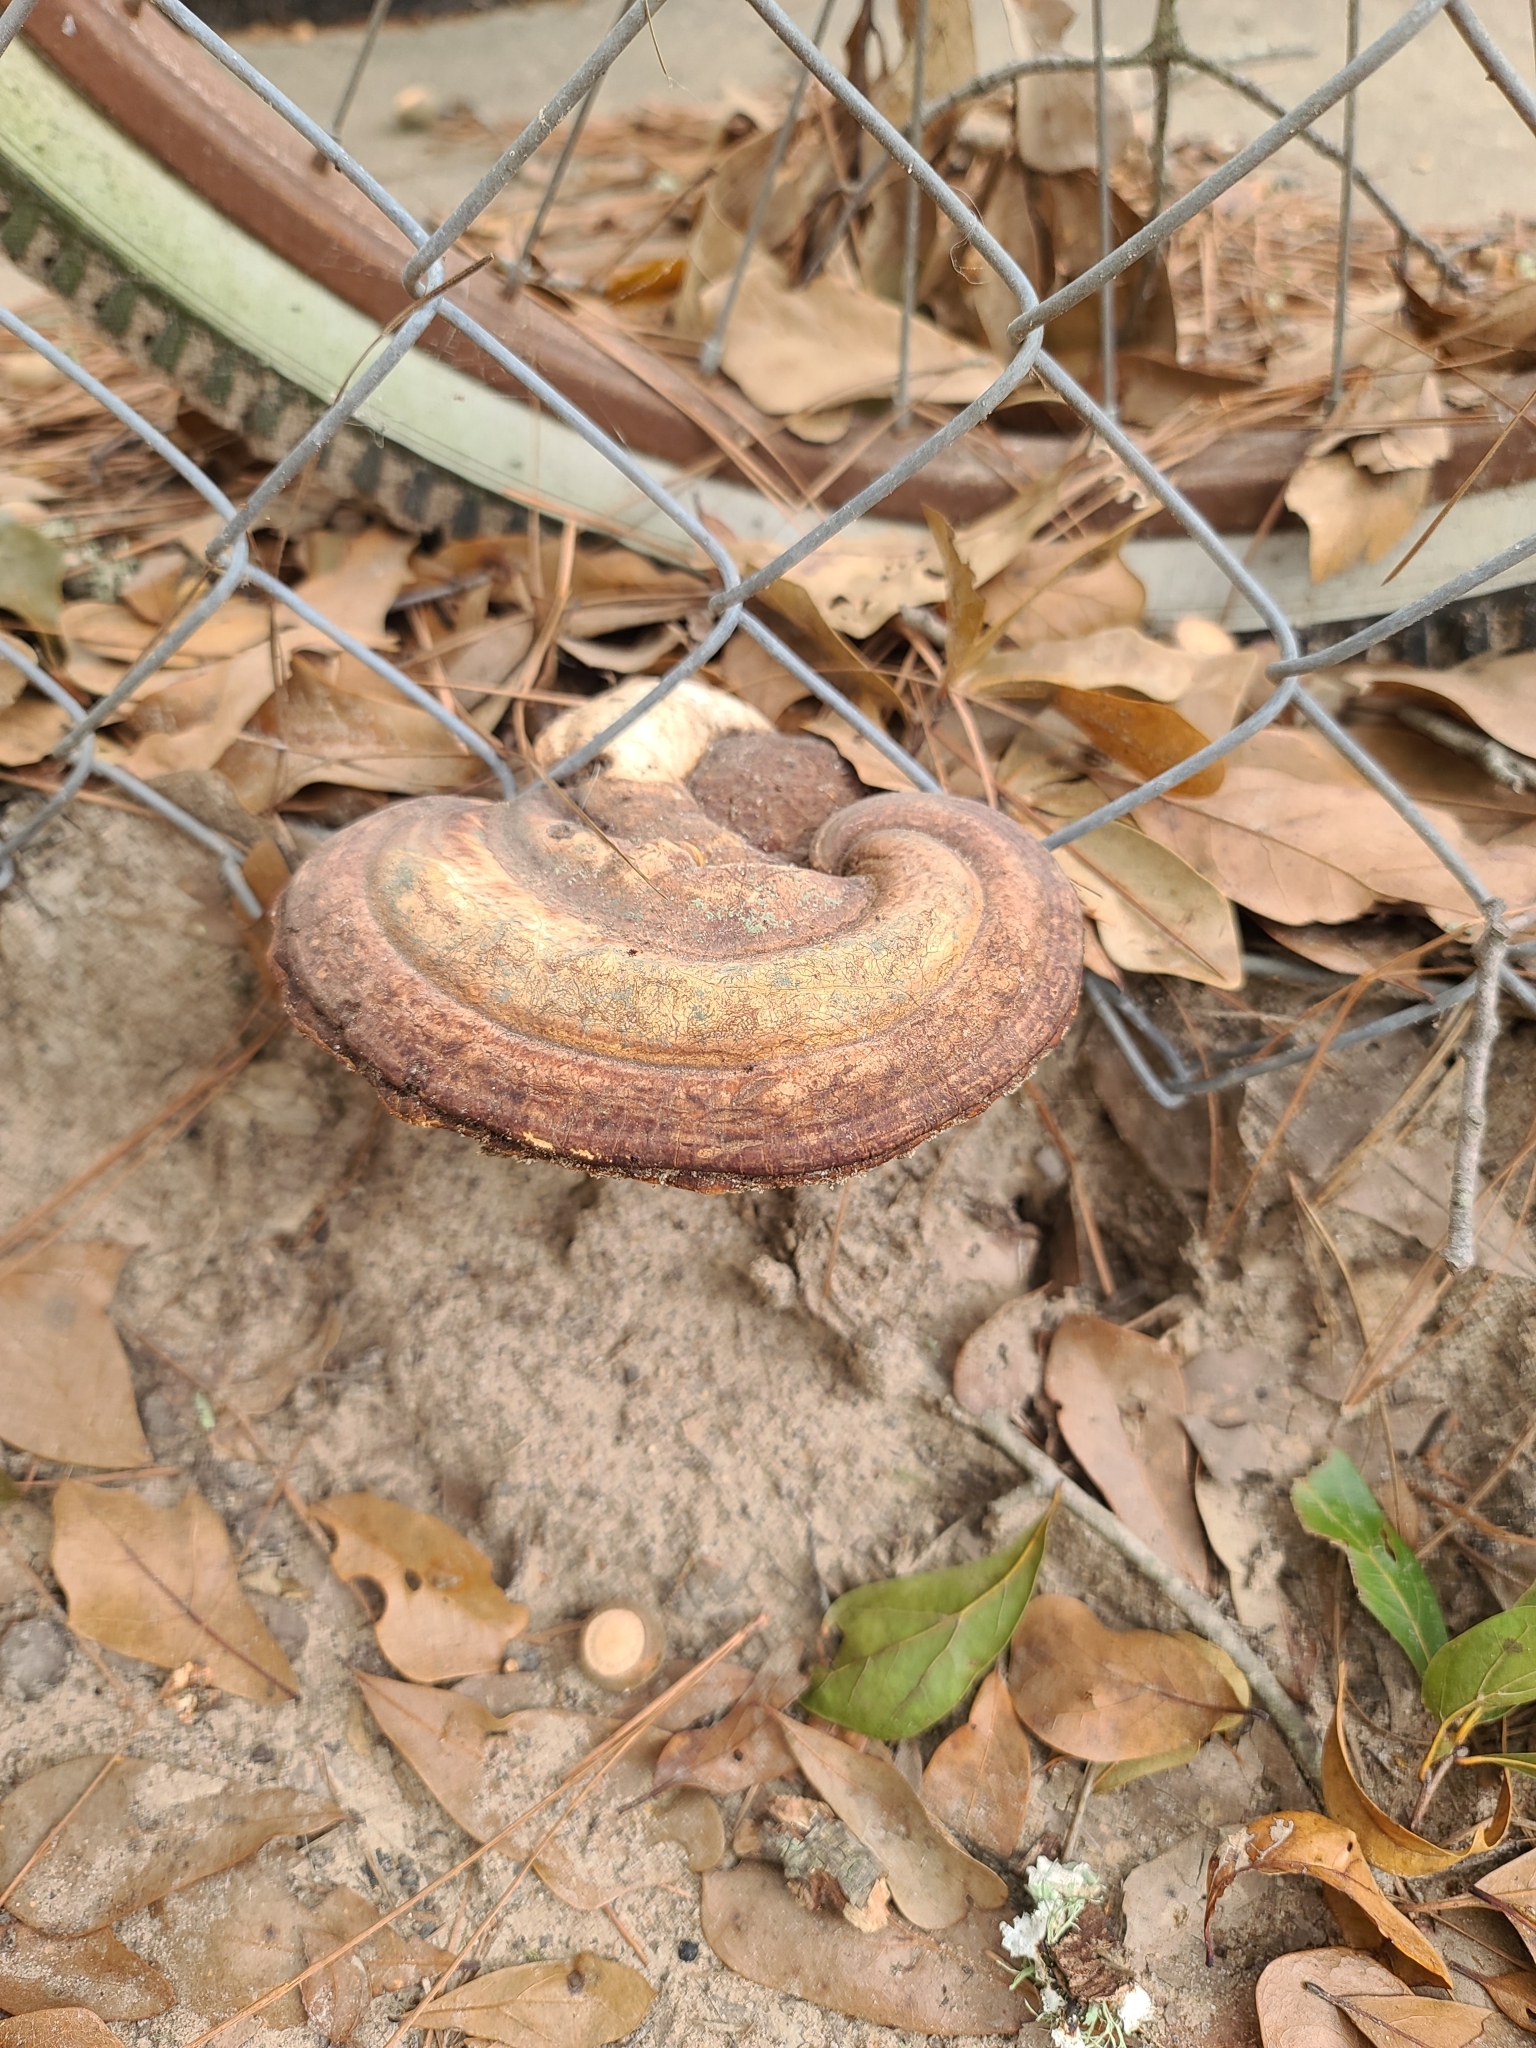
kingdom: Fungi
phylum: Basidiomycota
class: Agaricomycetes
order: Polyporales
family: Polyporaceae
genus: Ganoderma
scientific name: Ganoderma curtisii
